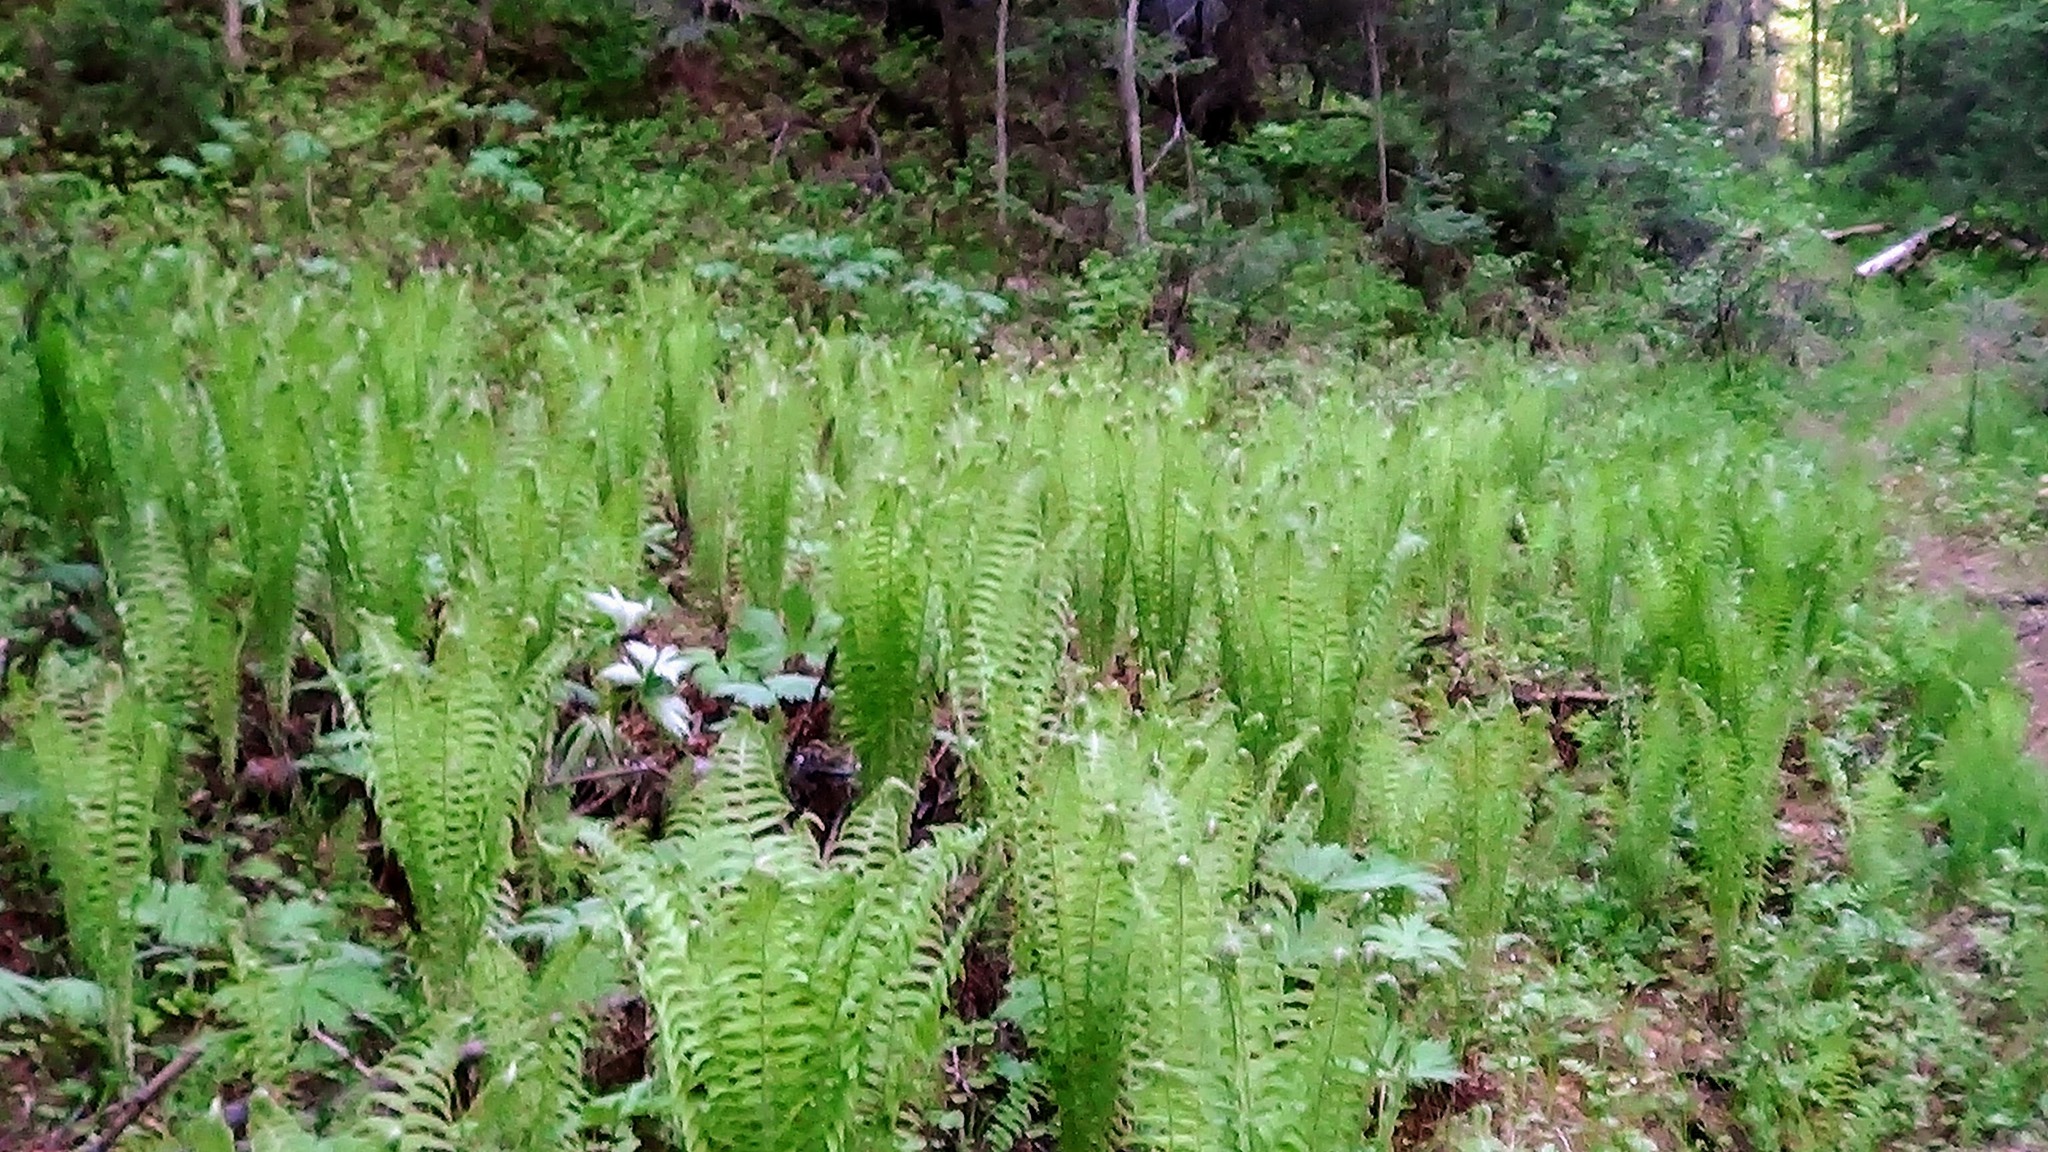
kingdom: Plantae
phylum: Tracheophyta
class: Polypodiopsida
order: Polypodiales
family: Onocleaceae
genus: Matteuccia
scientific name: Matteuccia struthiopteris
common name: Ostrich fern
